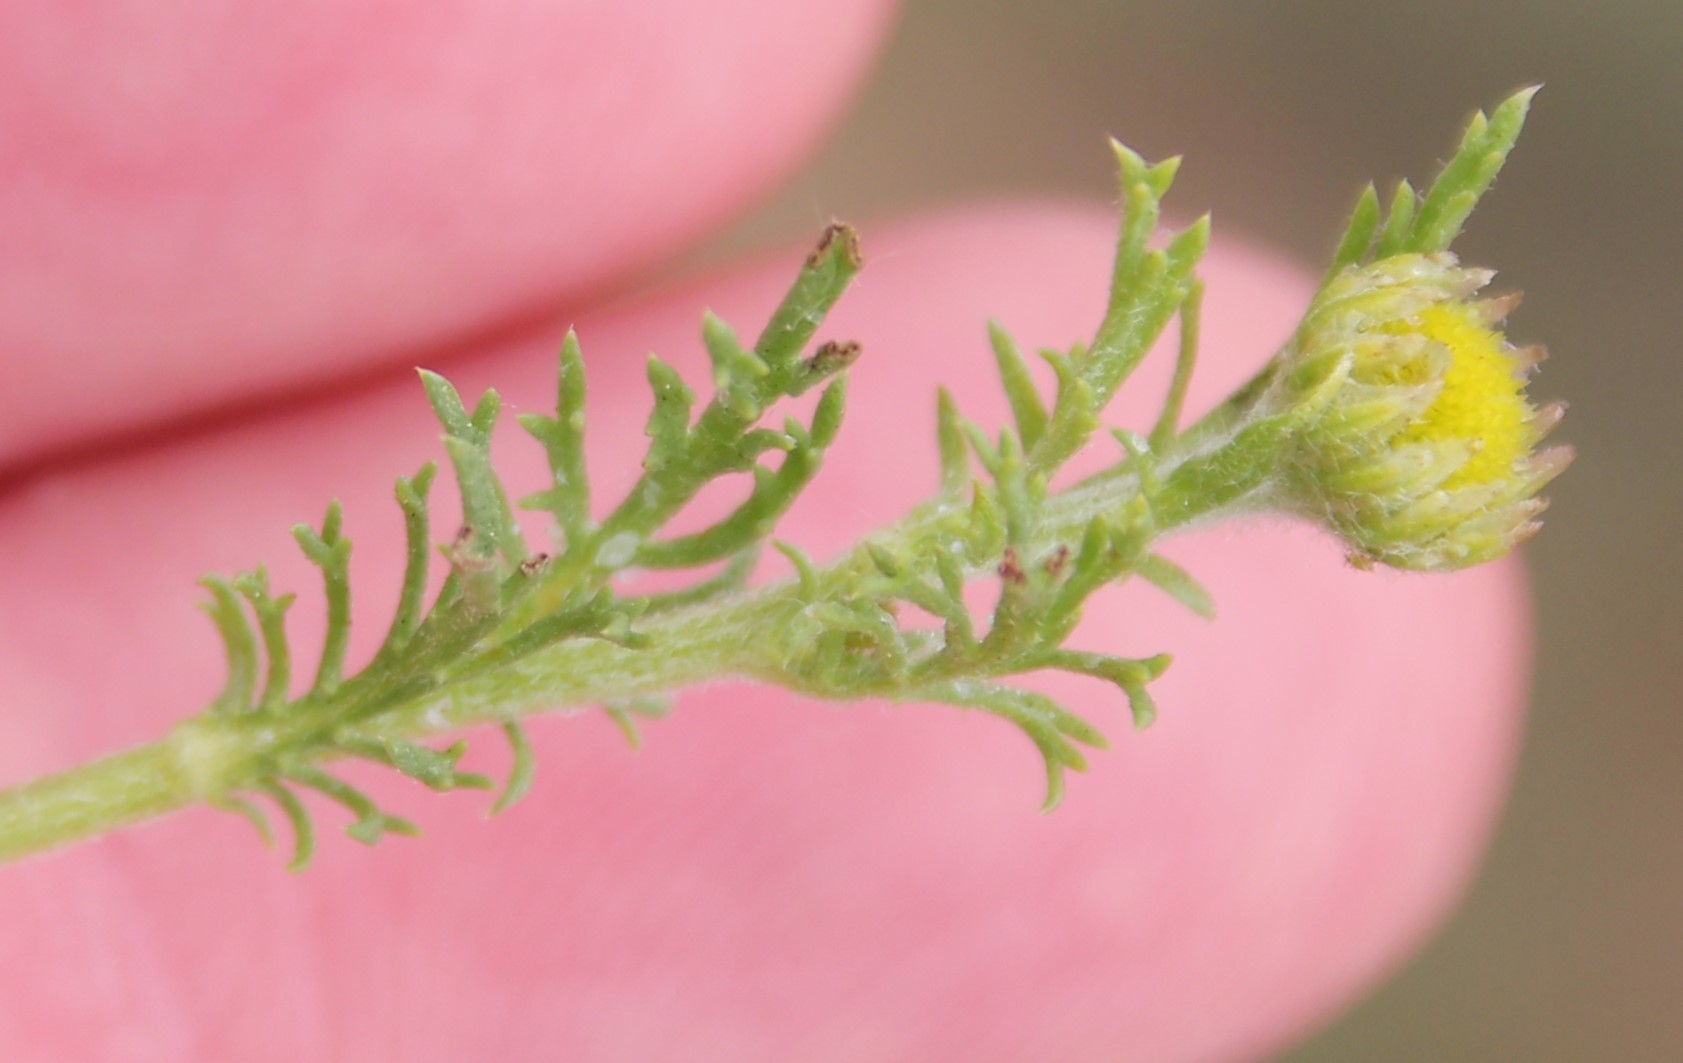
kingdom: Plantae
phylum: Tracheophyta
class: Magnoliopsida
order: Asterales
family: Asteraceae
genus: Anthemis
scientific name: Anthemis cotula
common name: Stinking chamomile
